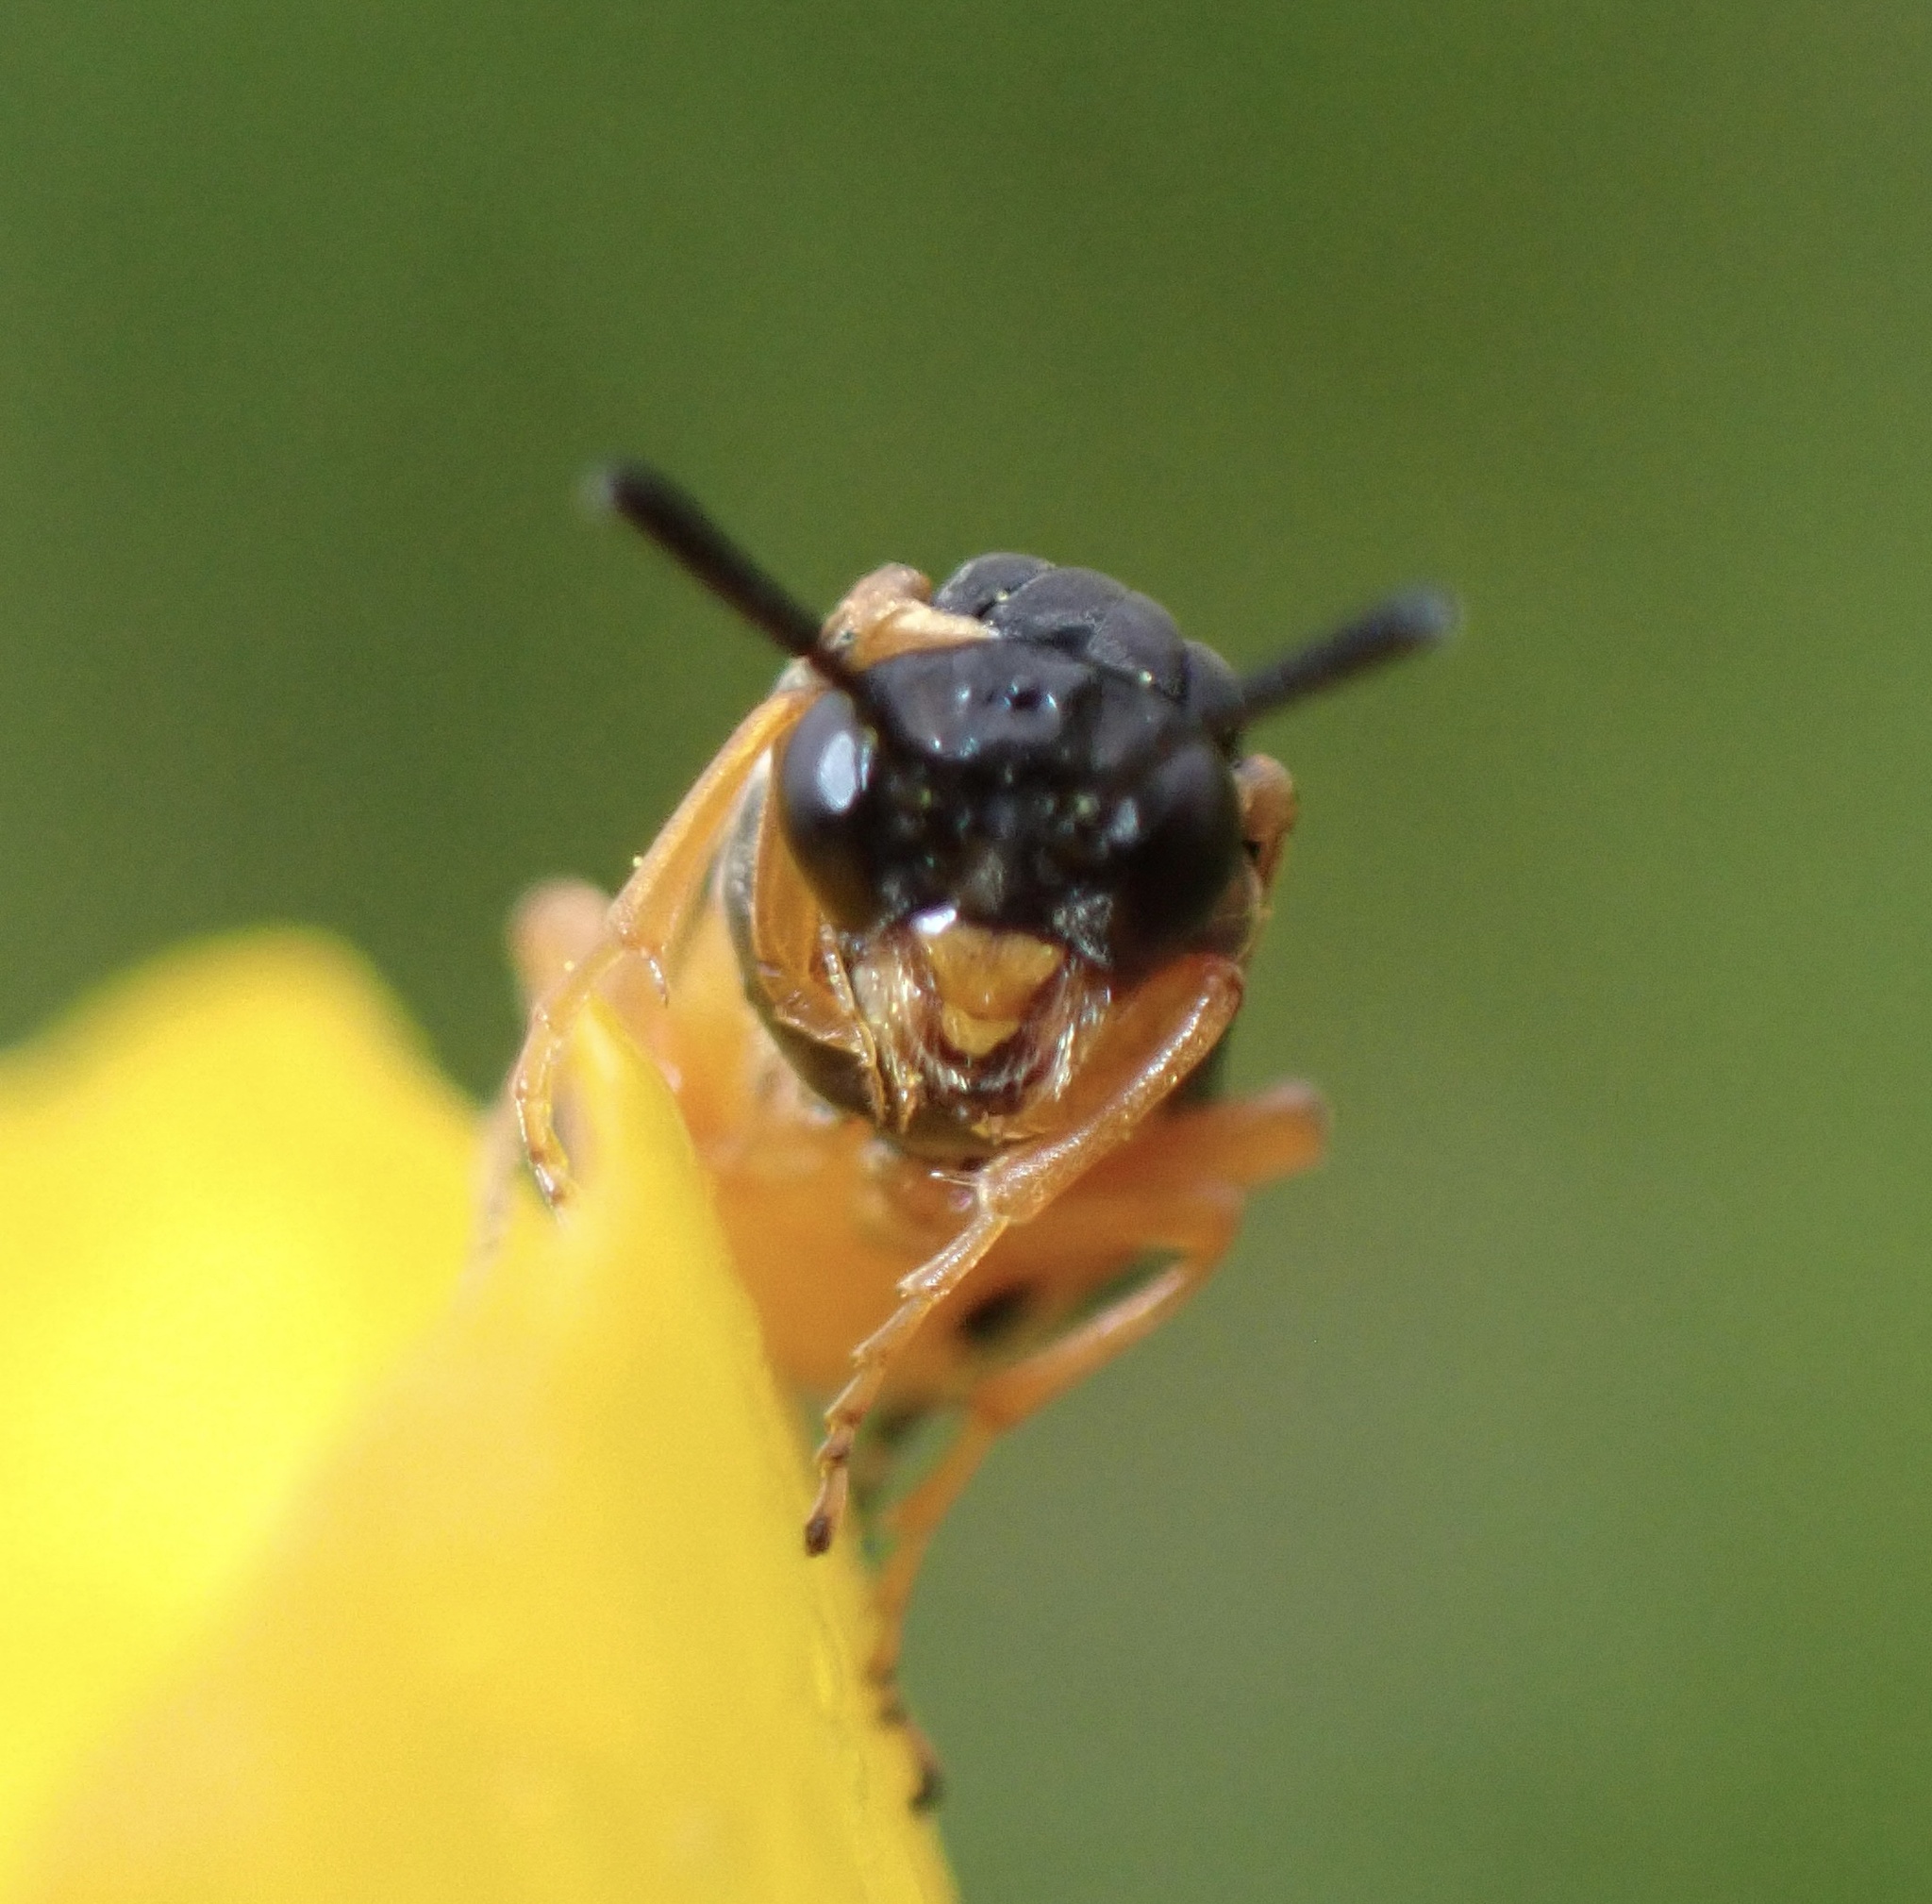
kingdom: Animalia
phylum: Arthropoda
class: Insecta
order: Hymenoptera
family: Tenthredinidae
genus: Athalia
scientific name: Athalia bicolor
